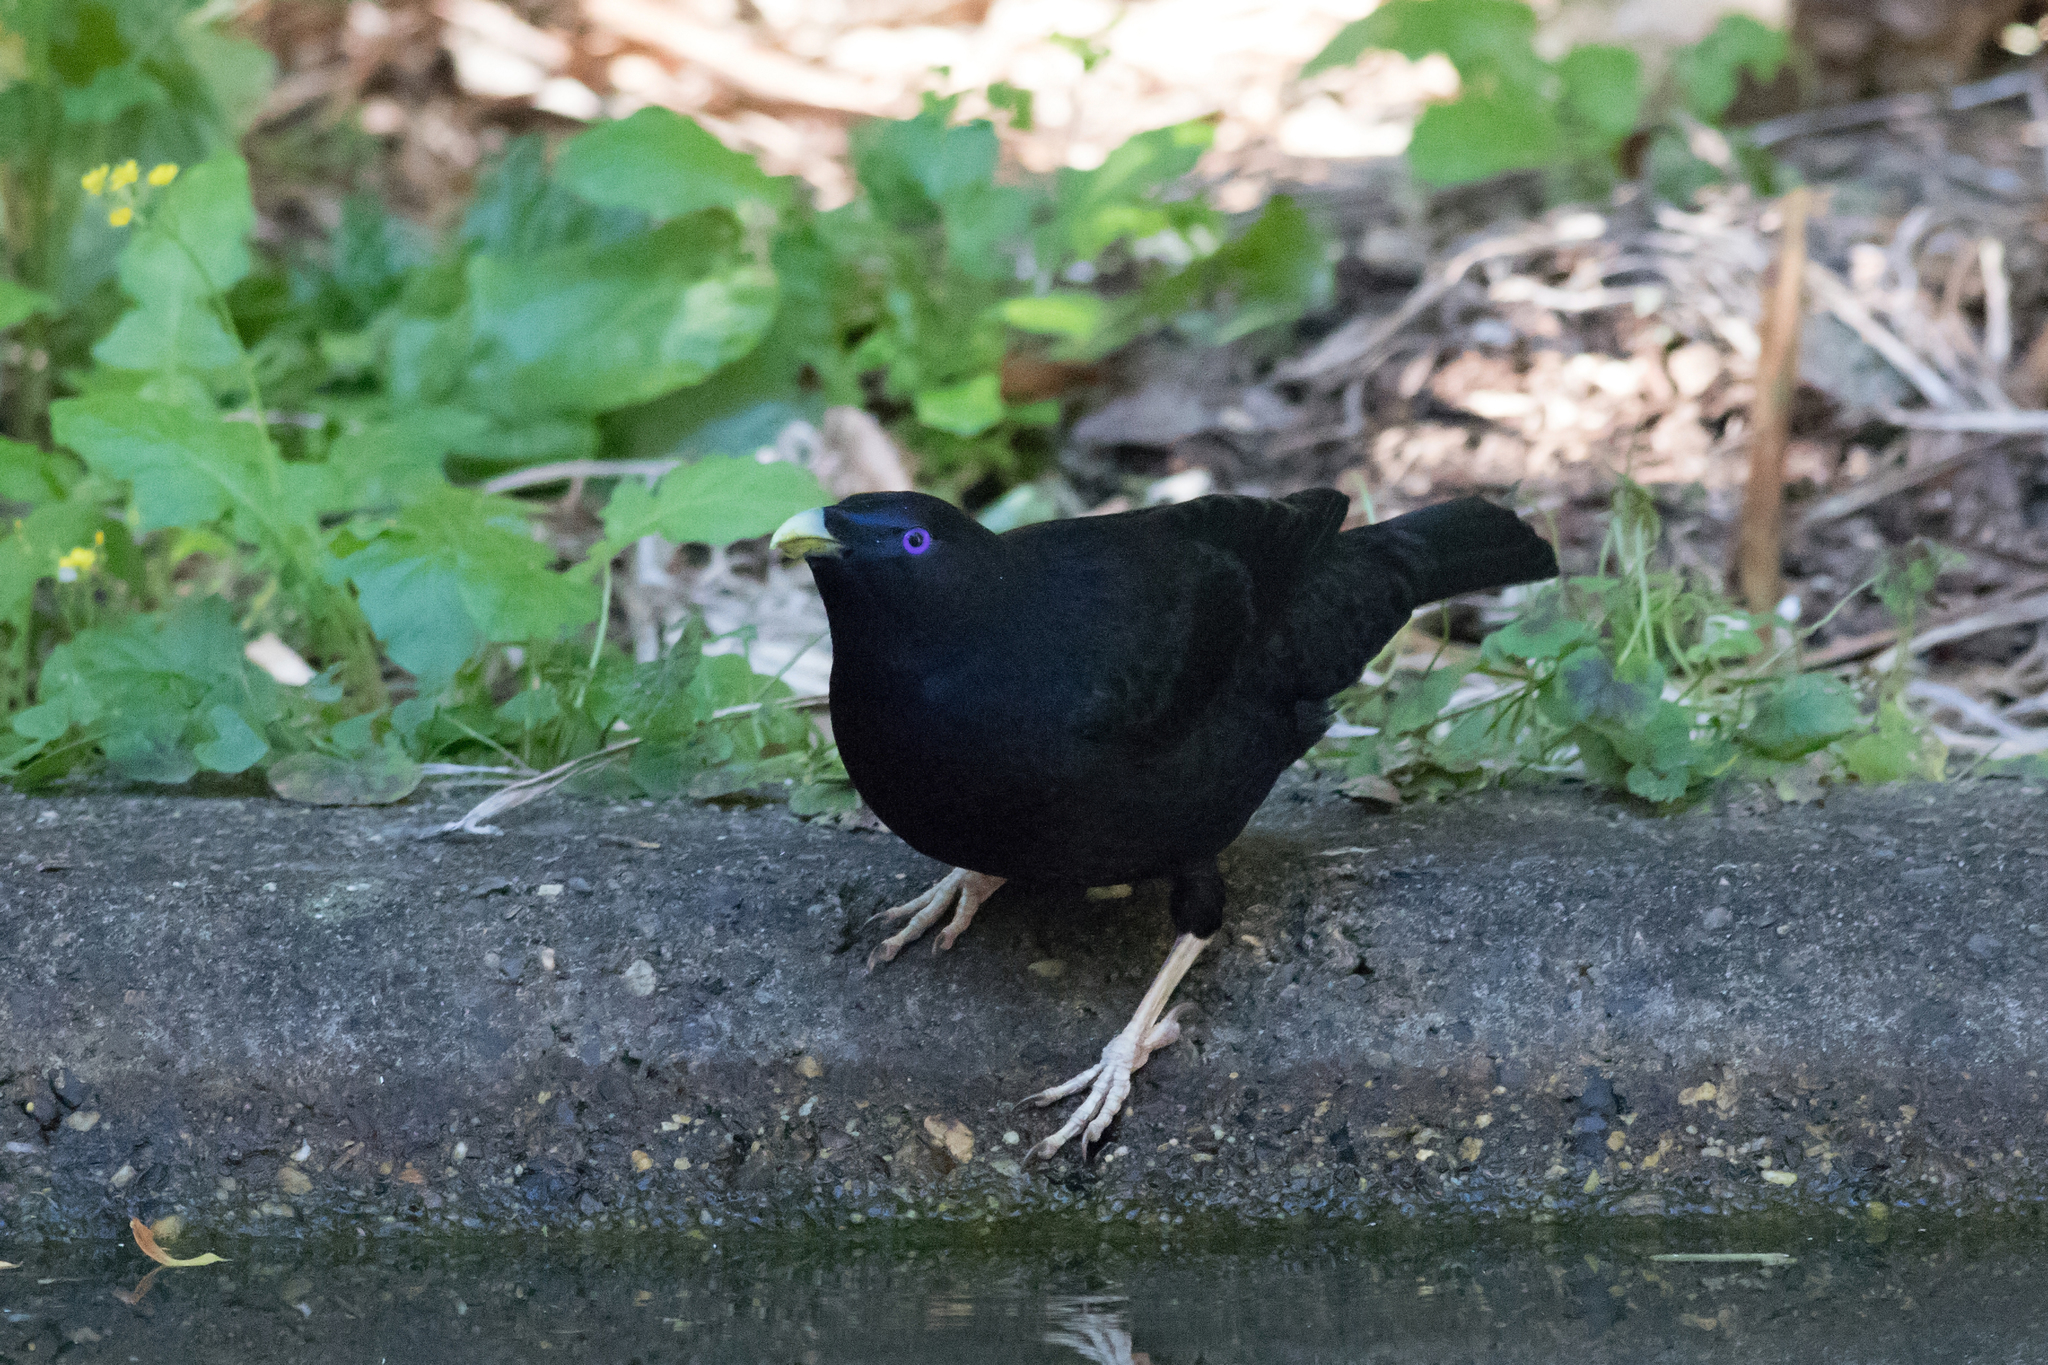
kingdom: Animalia
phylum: Chordata
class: Aves
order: Passeriformes
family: Ptilonorhynchidae
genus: Ptilonorhynchus
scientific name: Ptilonorhynchus violaceus
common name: Satin bowerbird
